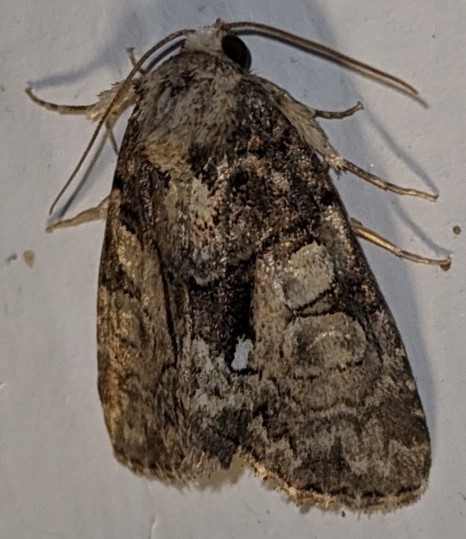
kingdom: Animalia
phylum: Arthropoda
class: Insecta
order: Lepidoptera
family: Noctuidae
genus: Chytonix
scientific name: Chytonix palliatricula
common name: Cloaked marvel
